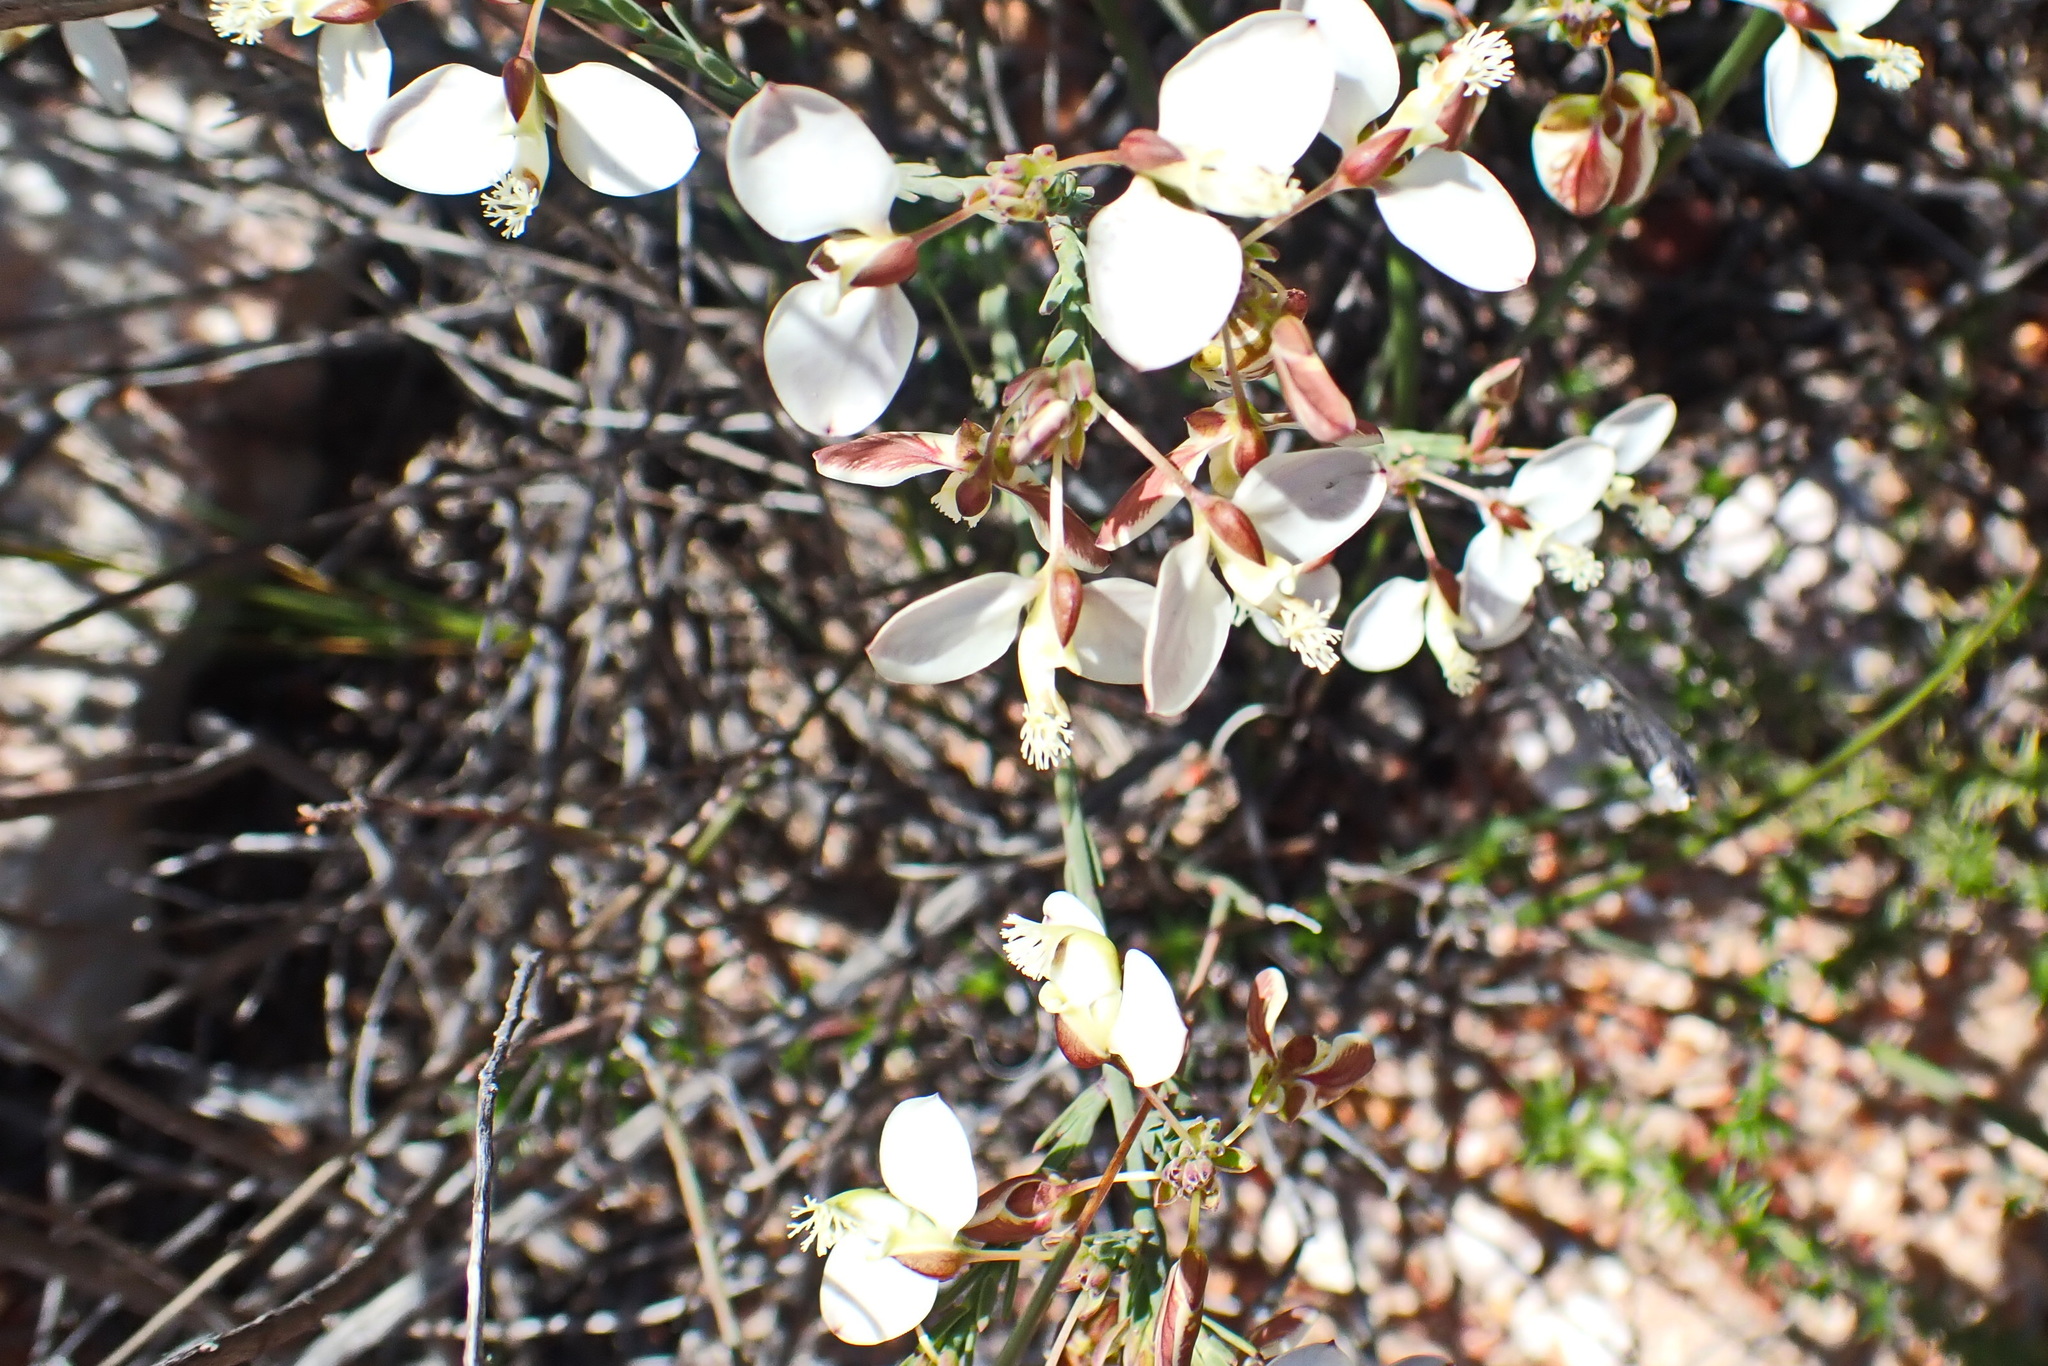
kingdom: Plantae
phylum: Tracheophyta
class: Magnoliopsida
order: Fabales
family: Polygalaceae
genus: Polygala
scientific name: Polygala wittebergensis
